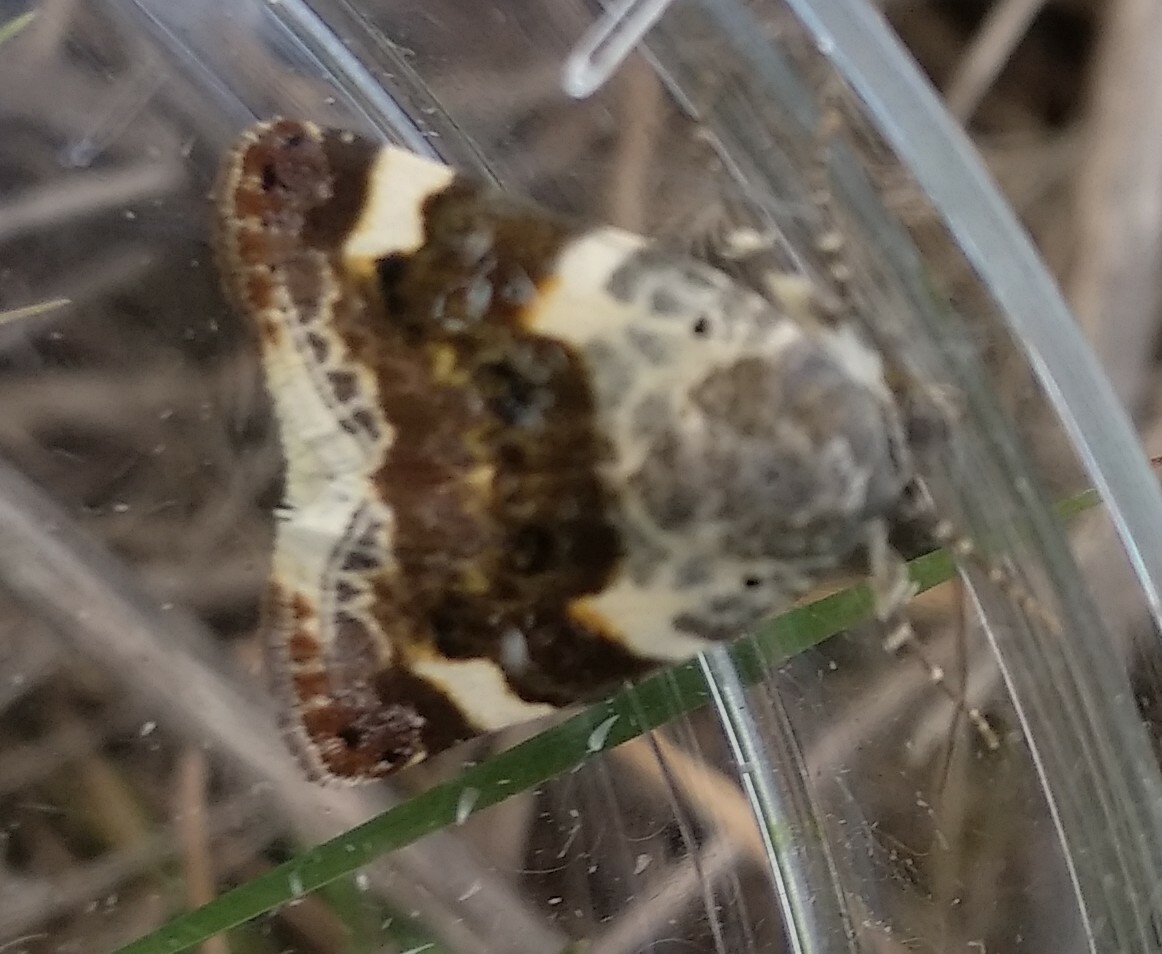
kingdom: Animalia
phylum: Arthropoda
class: Insecta
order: Lepidoptera
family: Noctuidae
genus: Acontia
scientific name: Acontia lucida
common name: Pale shoulder
